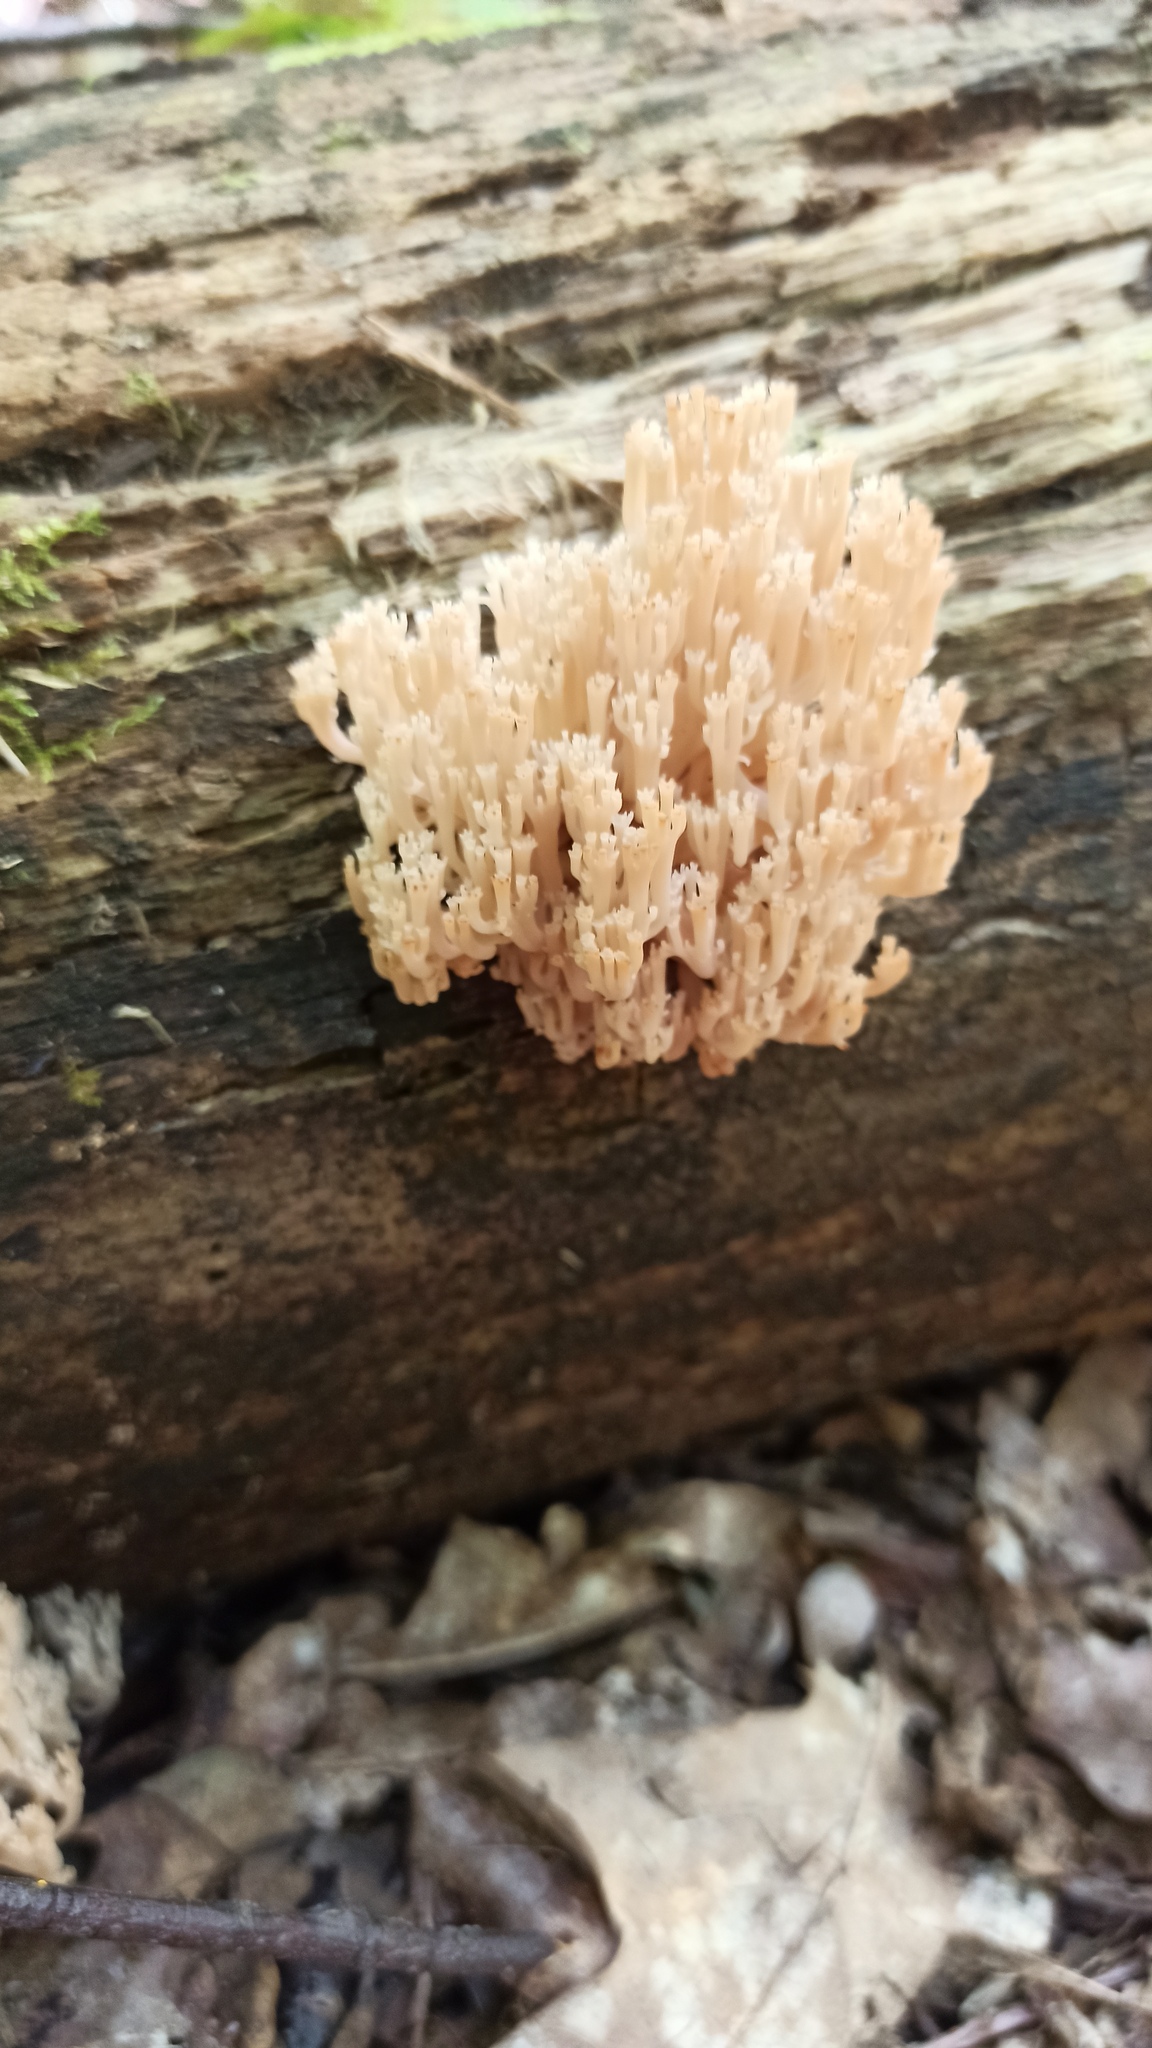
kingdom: Fungi
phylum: Basidiomycota
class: Agaricomycetes
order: Russulales
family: Auriscalpiaceae
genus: Artomyces
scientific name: Artomyces pyxidatus
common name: Crown-tipped coral fungus
